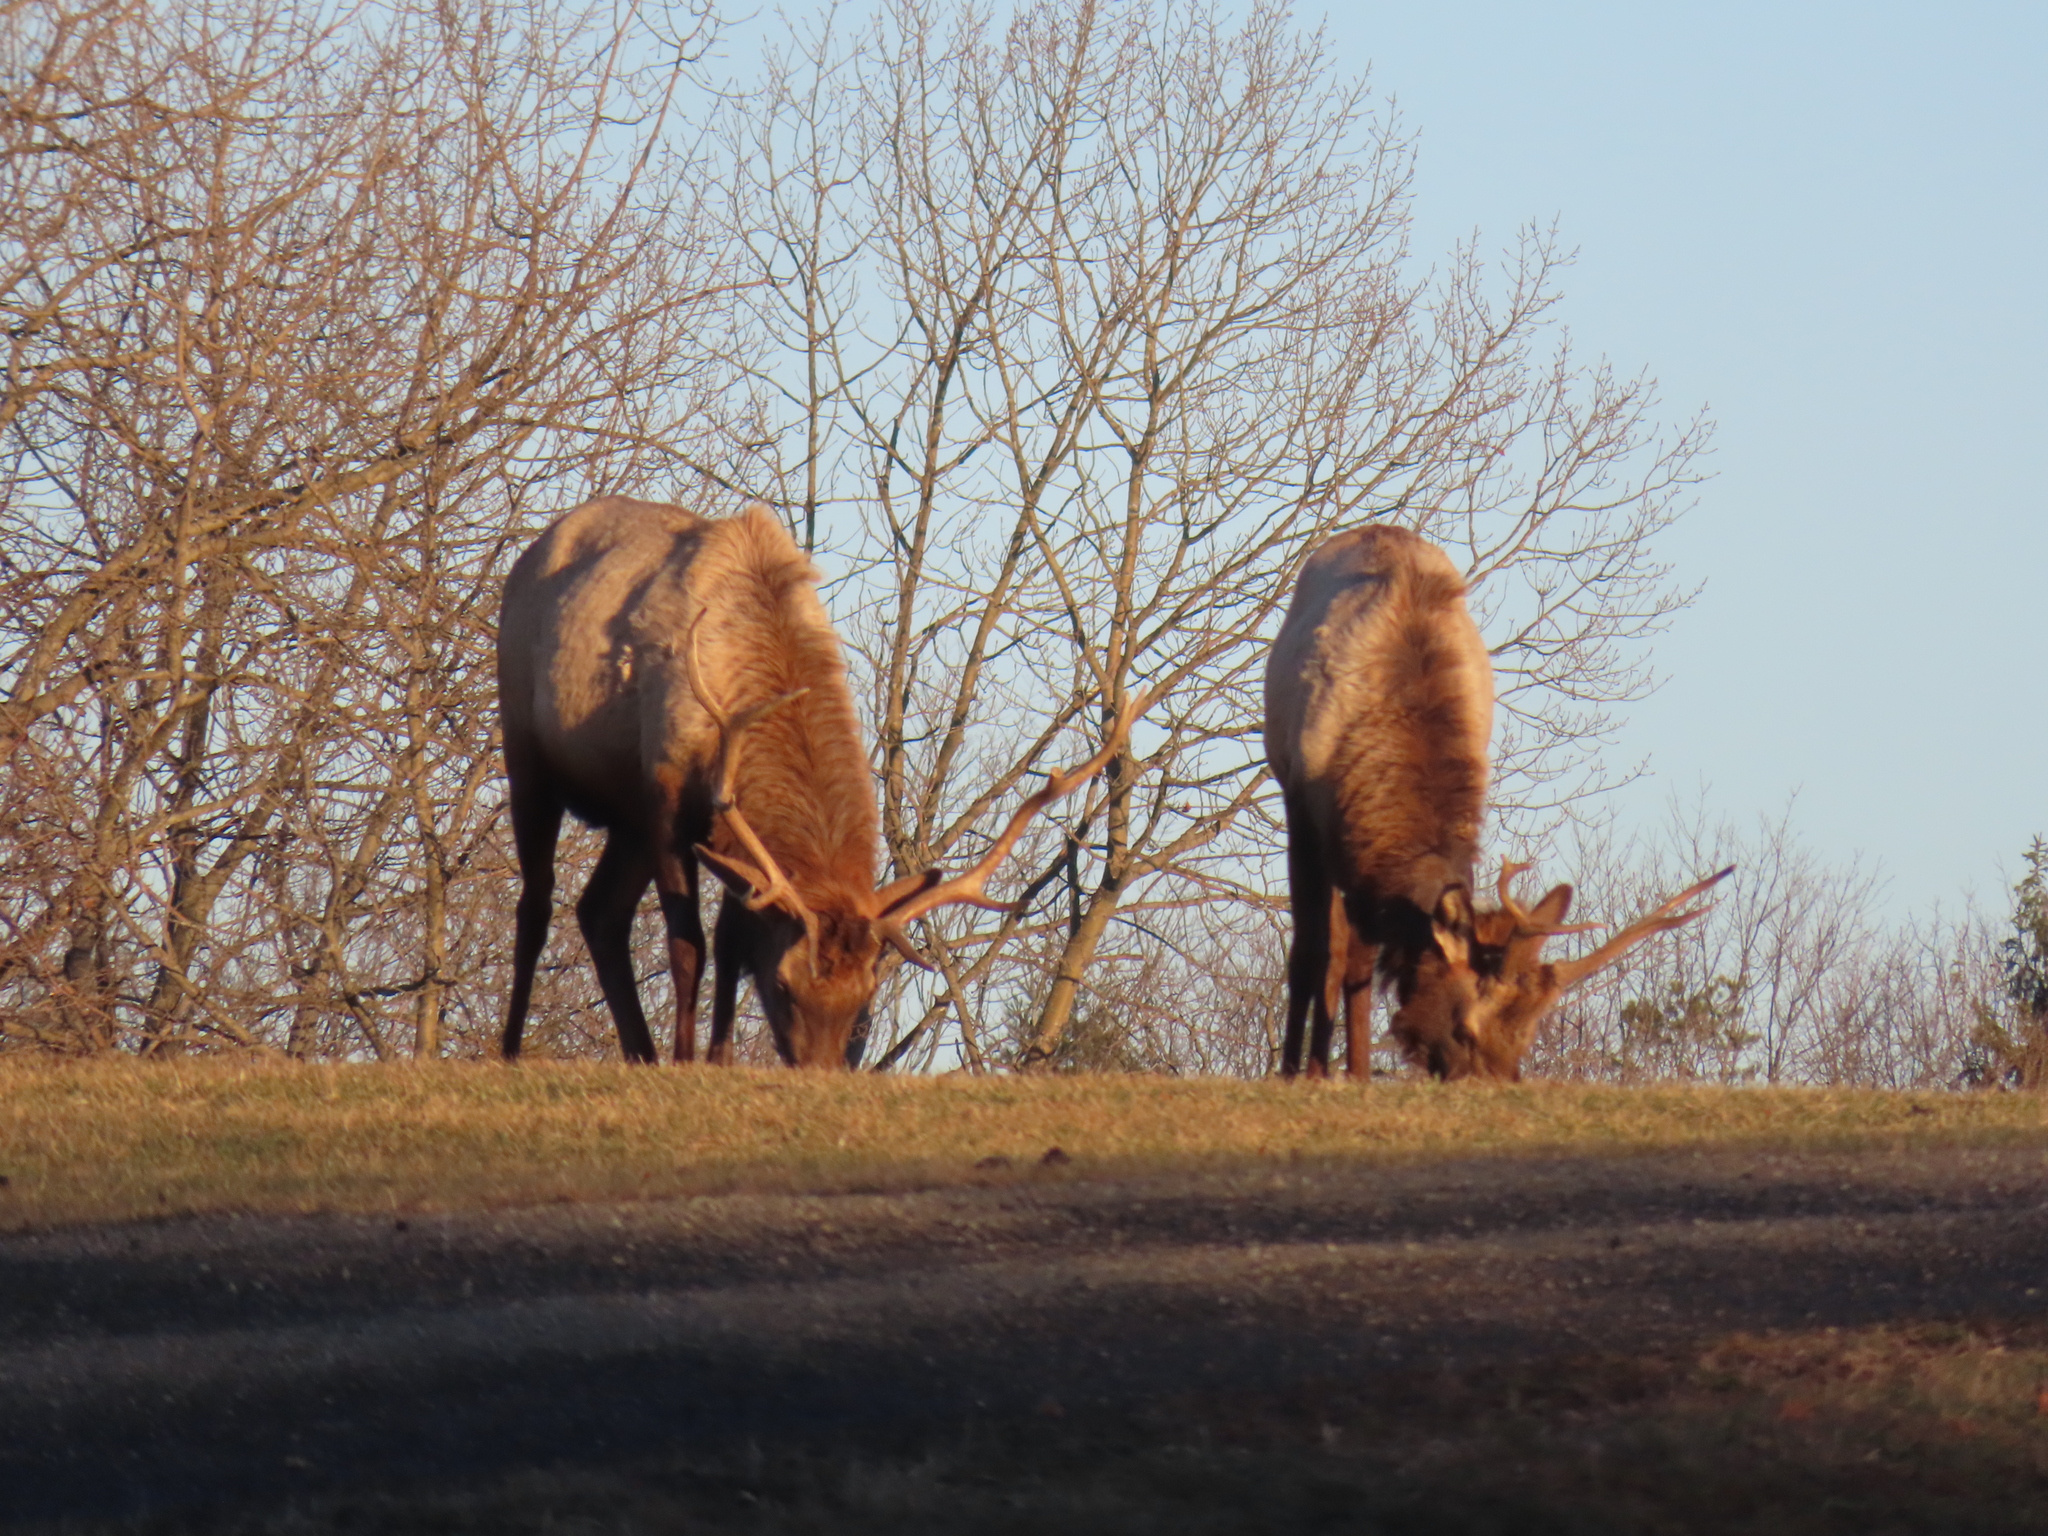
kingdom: Animalia
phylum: Chordata
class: Mammalia
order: Artiodactyla
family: Cervidae
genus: Cervus
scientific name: Cervus elaphus
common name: Red deer
